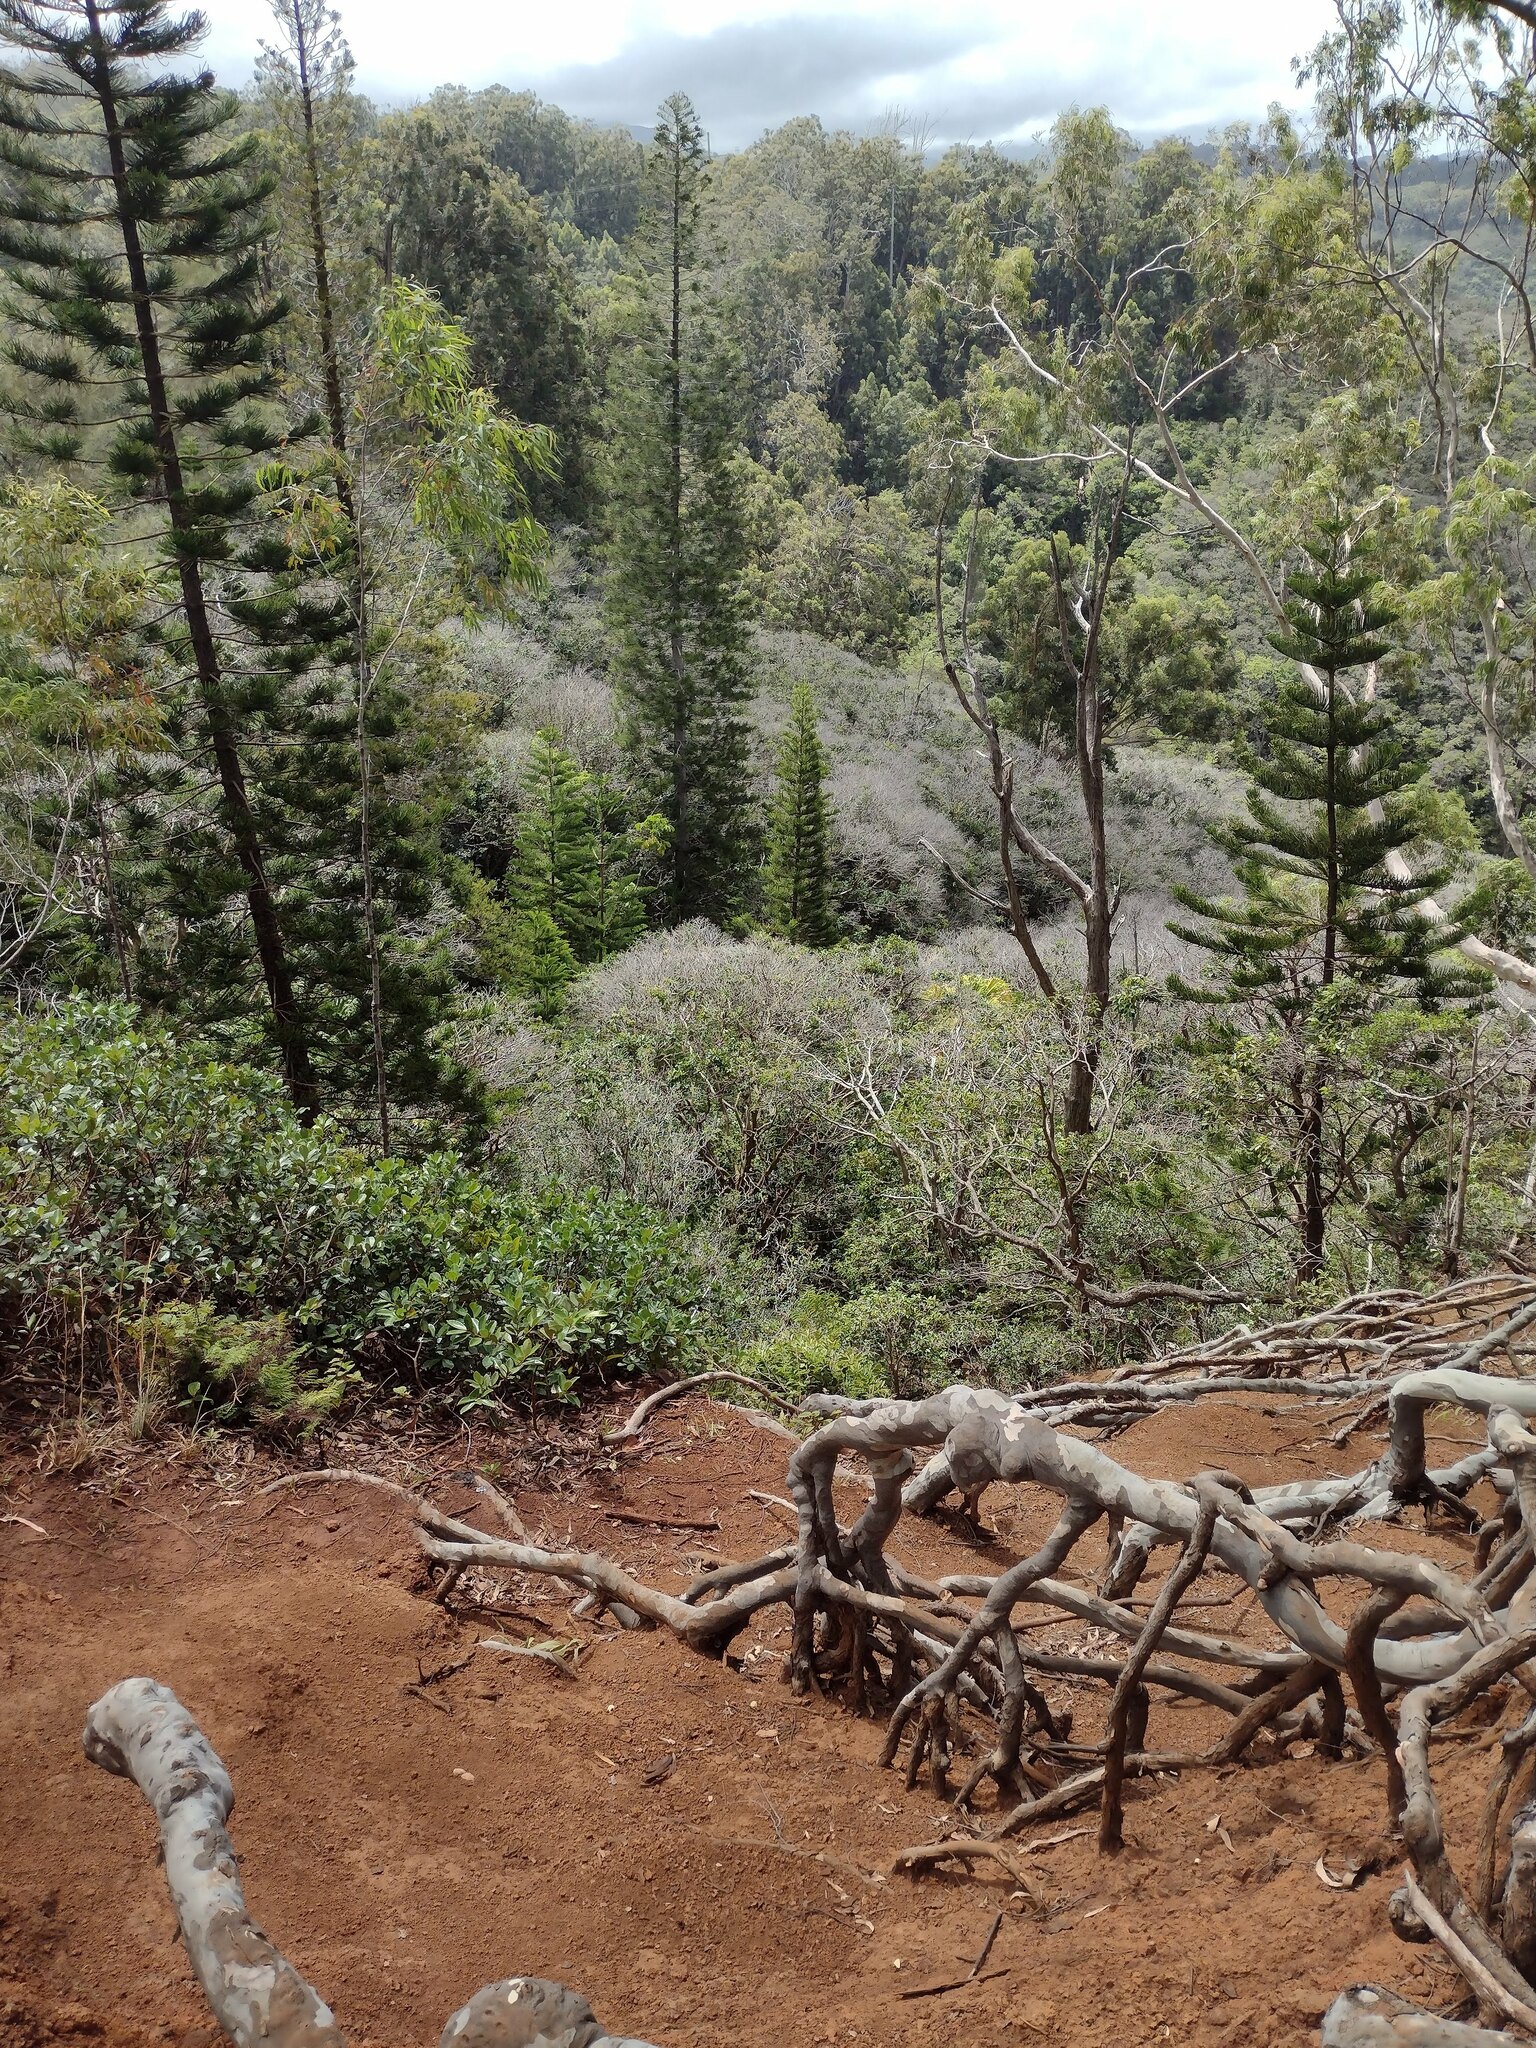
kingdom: Plantae
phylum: Tracheophyta
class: Pinopsida
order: Pinales
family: Araucariaceae
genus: Araucaria
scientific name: Araucaria columnaris
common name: Coral reef araucaria
